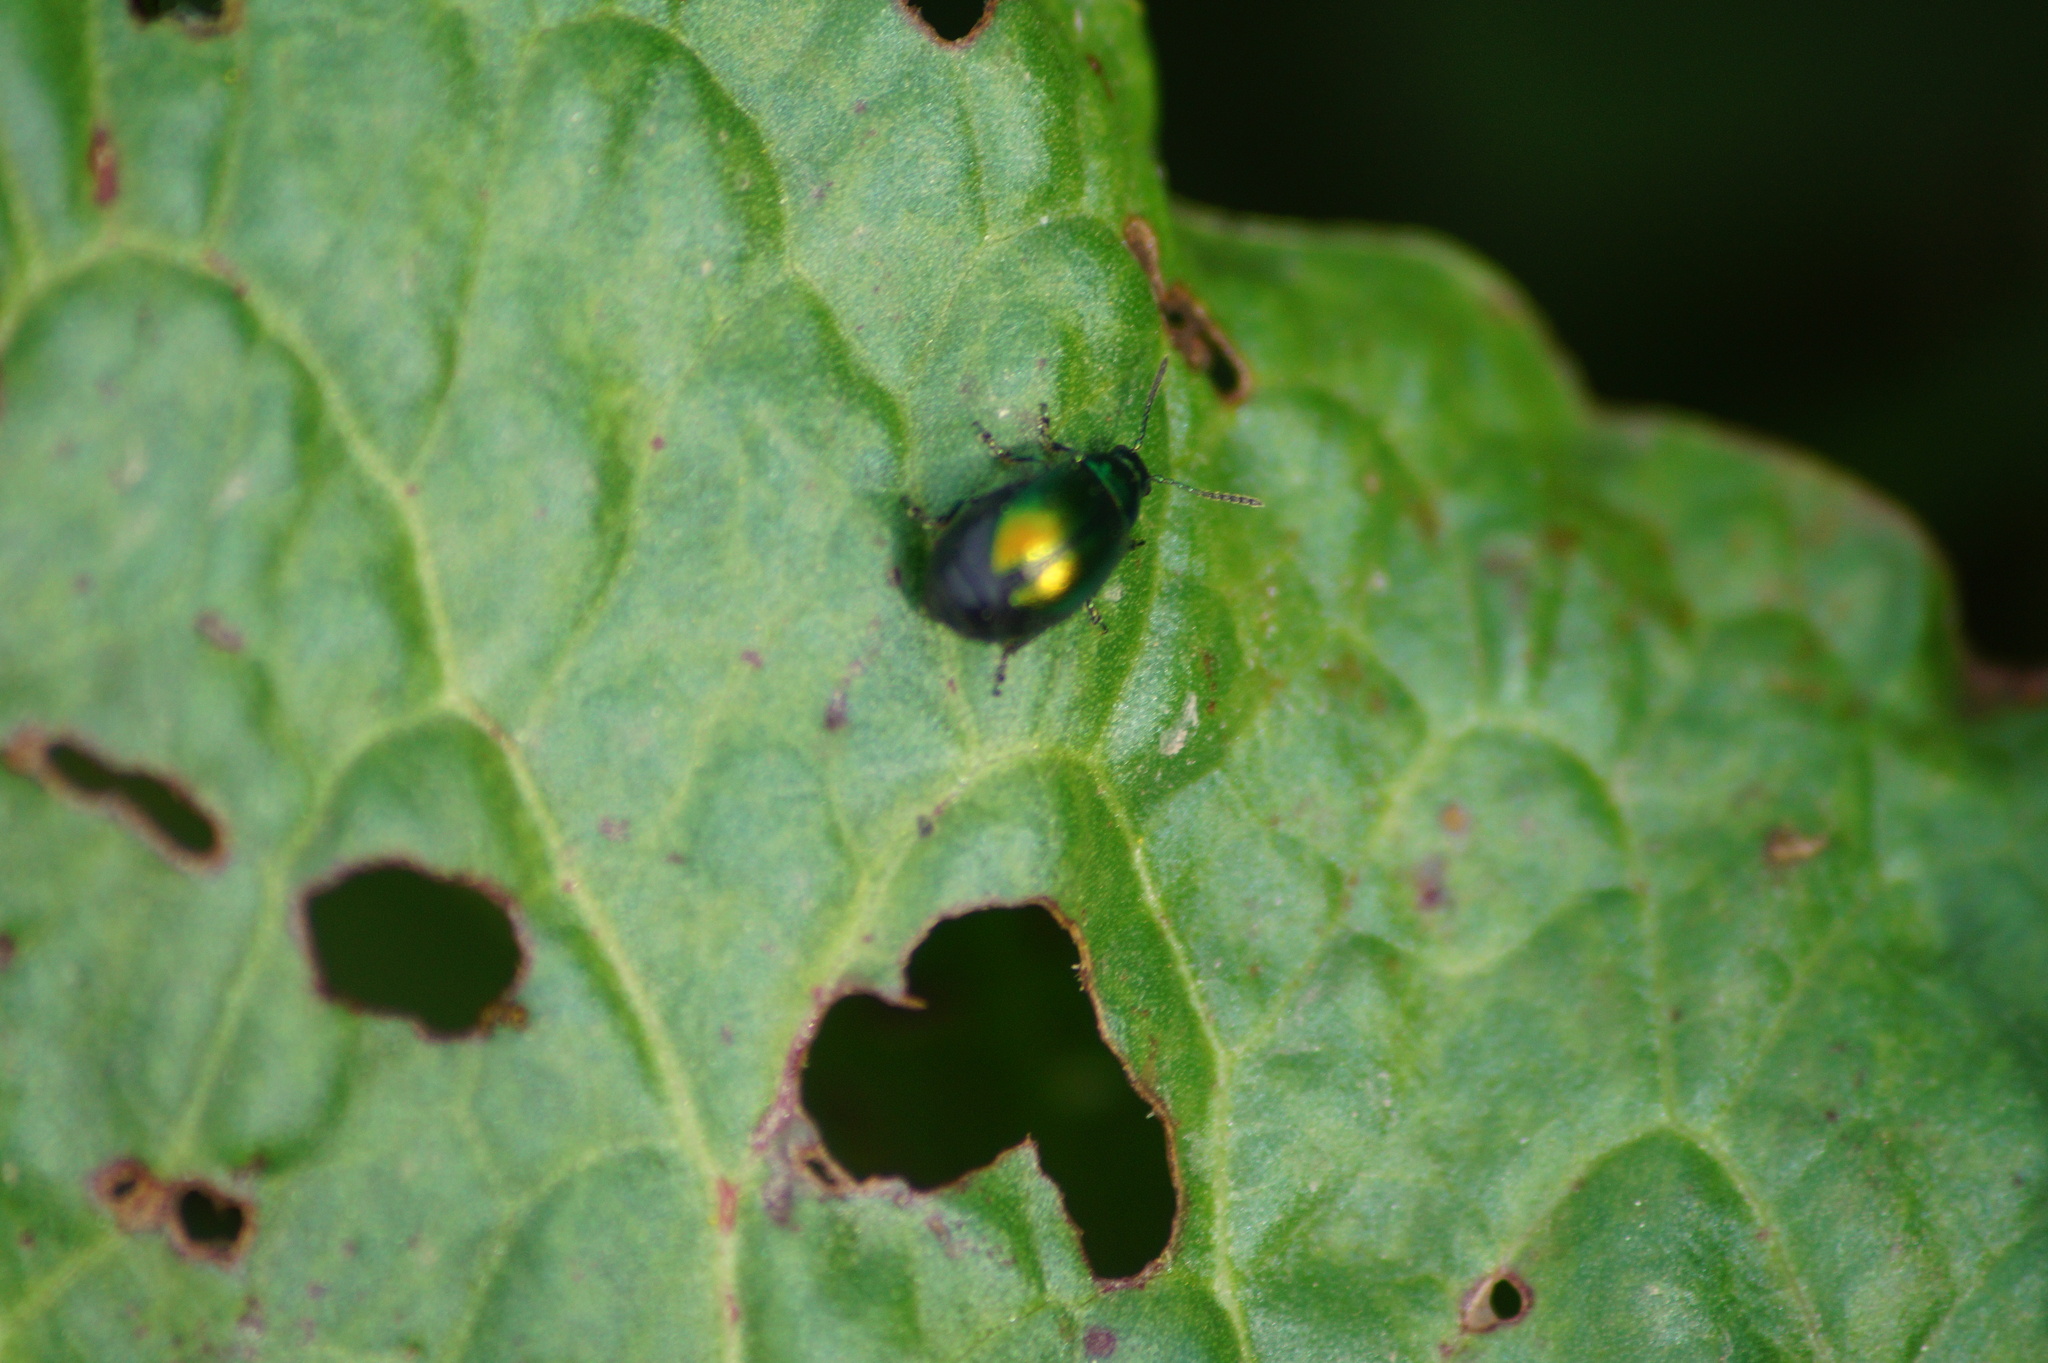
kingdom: Animalia
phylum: Arthropoda
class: Insecta
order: Coleoptera
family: Chrysomelidae
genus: Gastrophysa
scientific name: Gastrophysa viridula
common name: Green dock beetle
